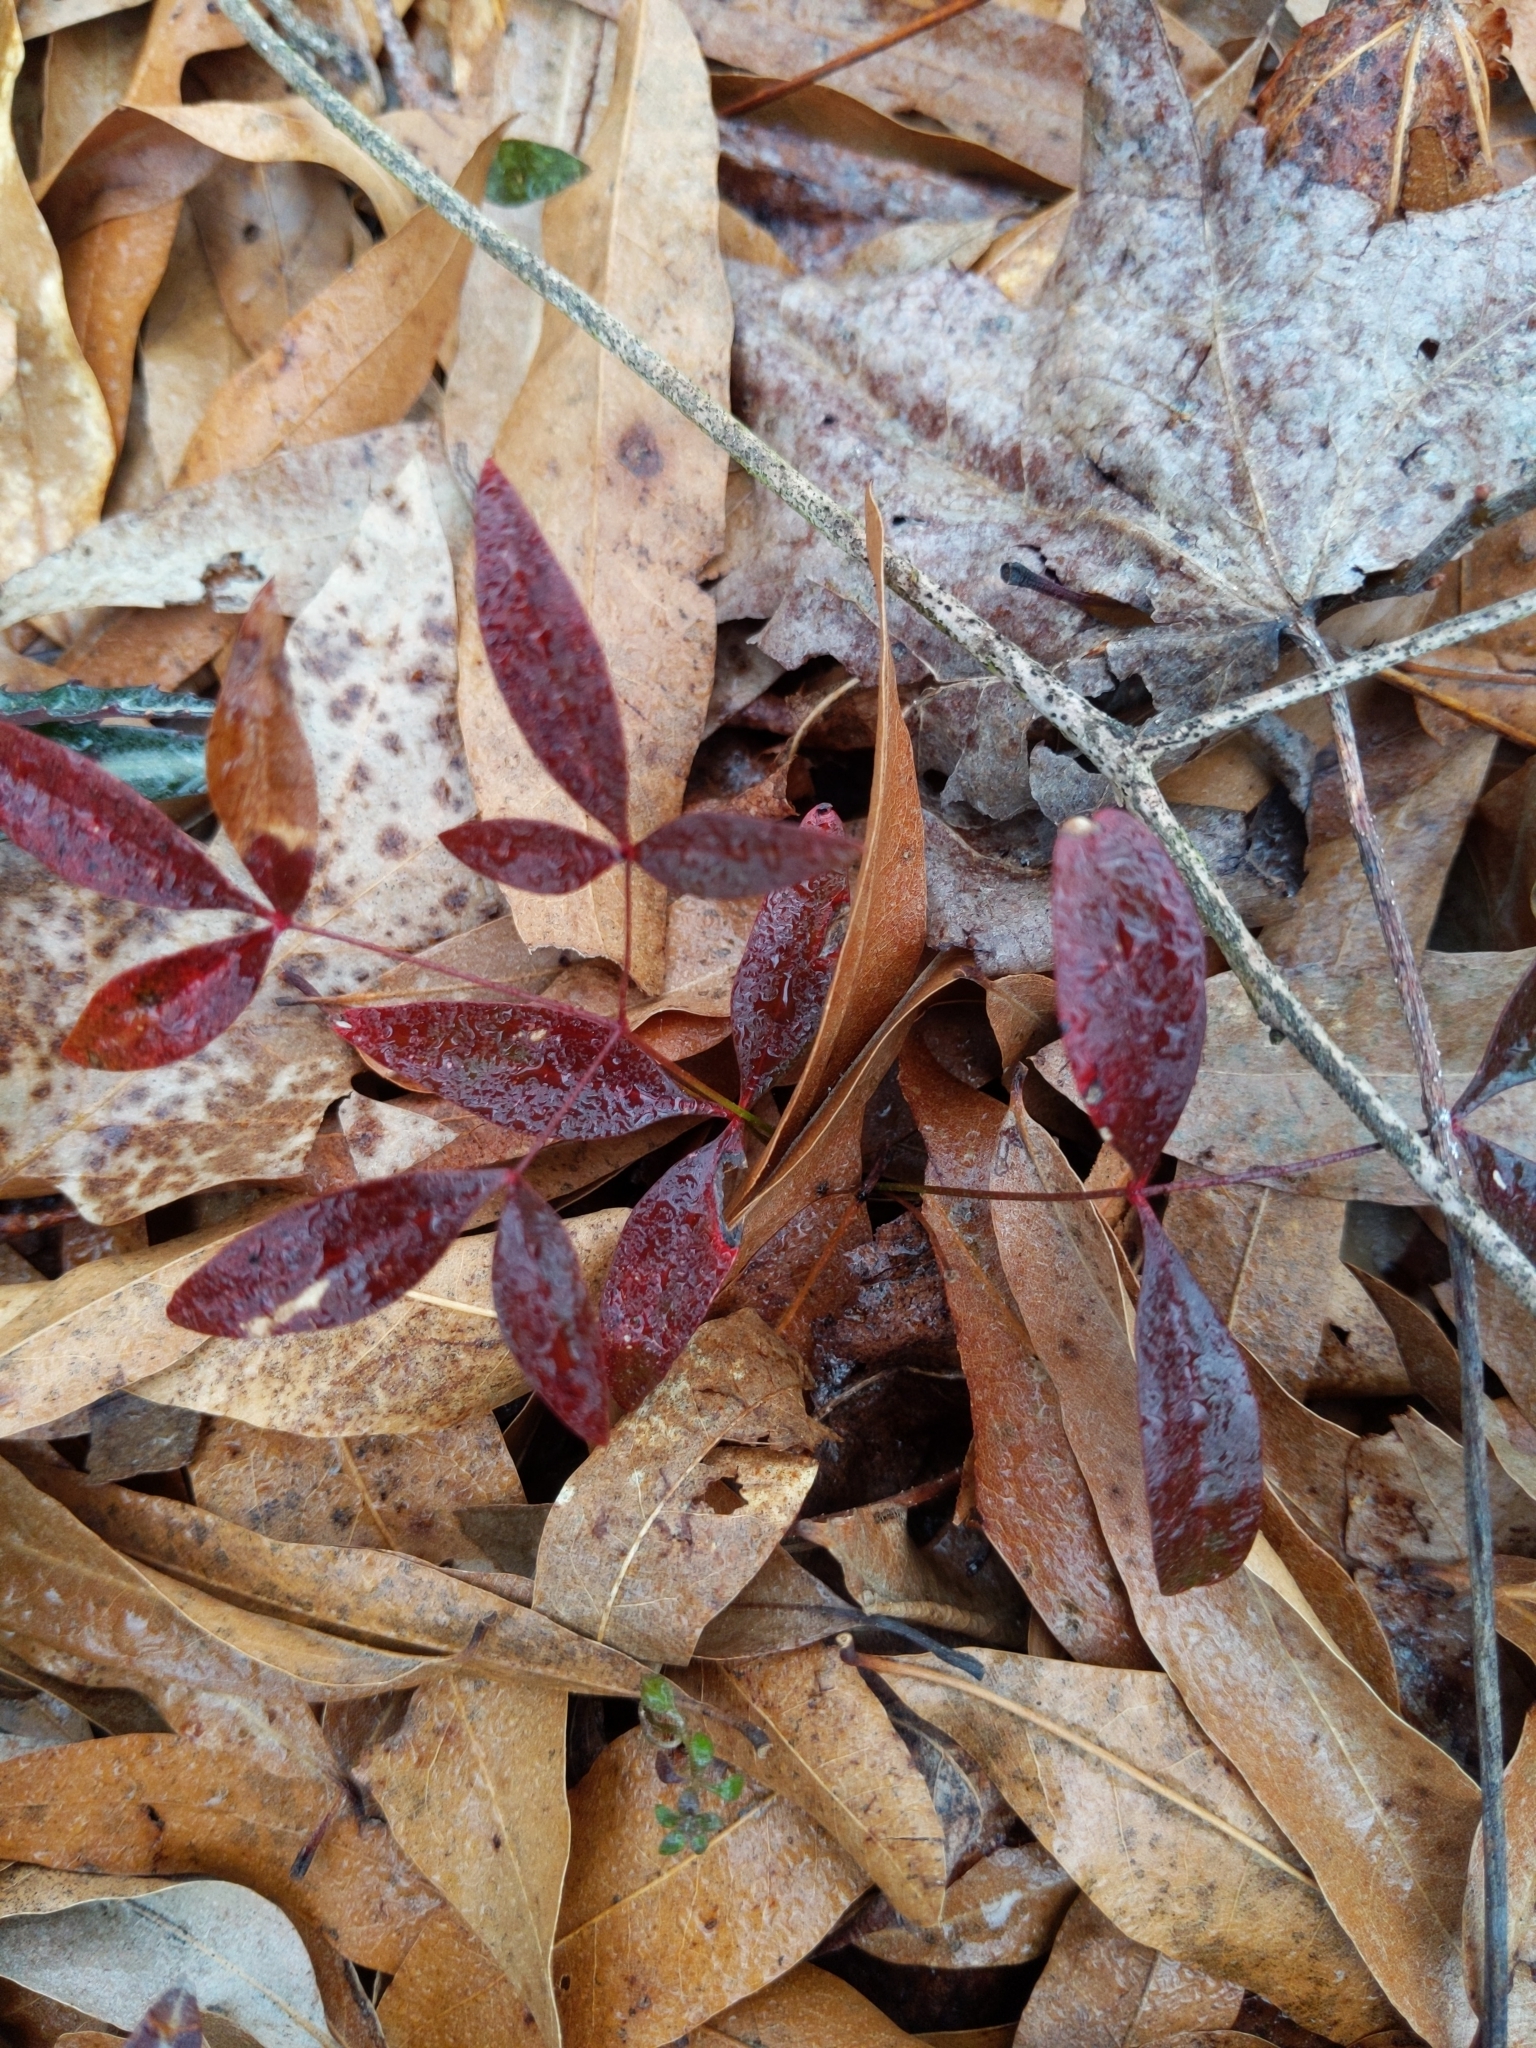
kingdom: Plantae
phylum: Tracheophyta
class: Magnoliopsida
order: Ranunculales
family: Berberidaceae
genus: Nandina
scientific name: Nandina domestica
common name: Sacred bamboo
